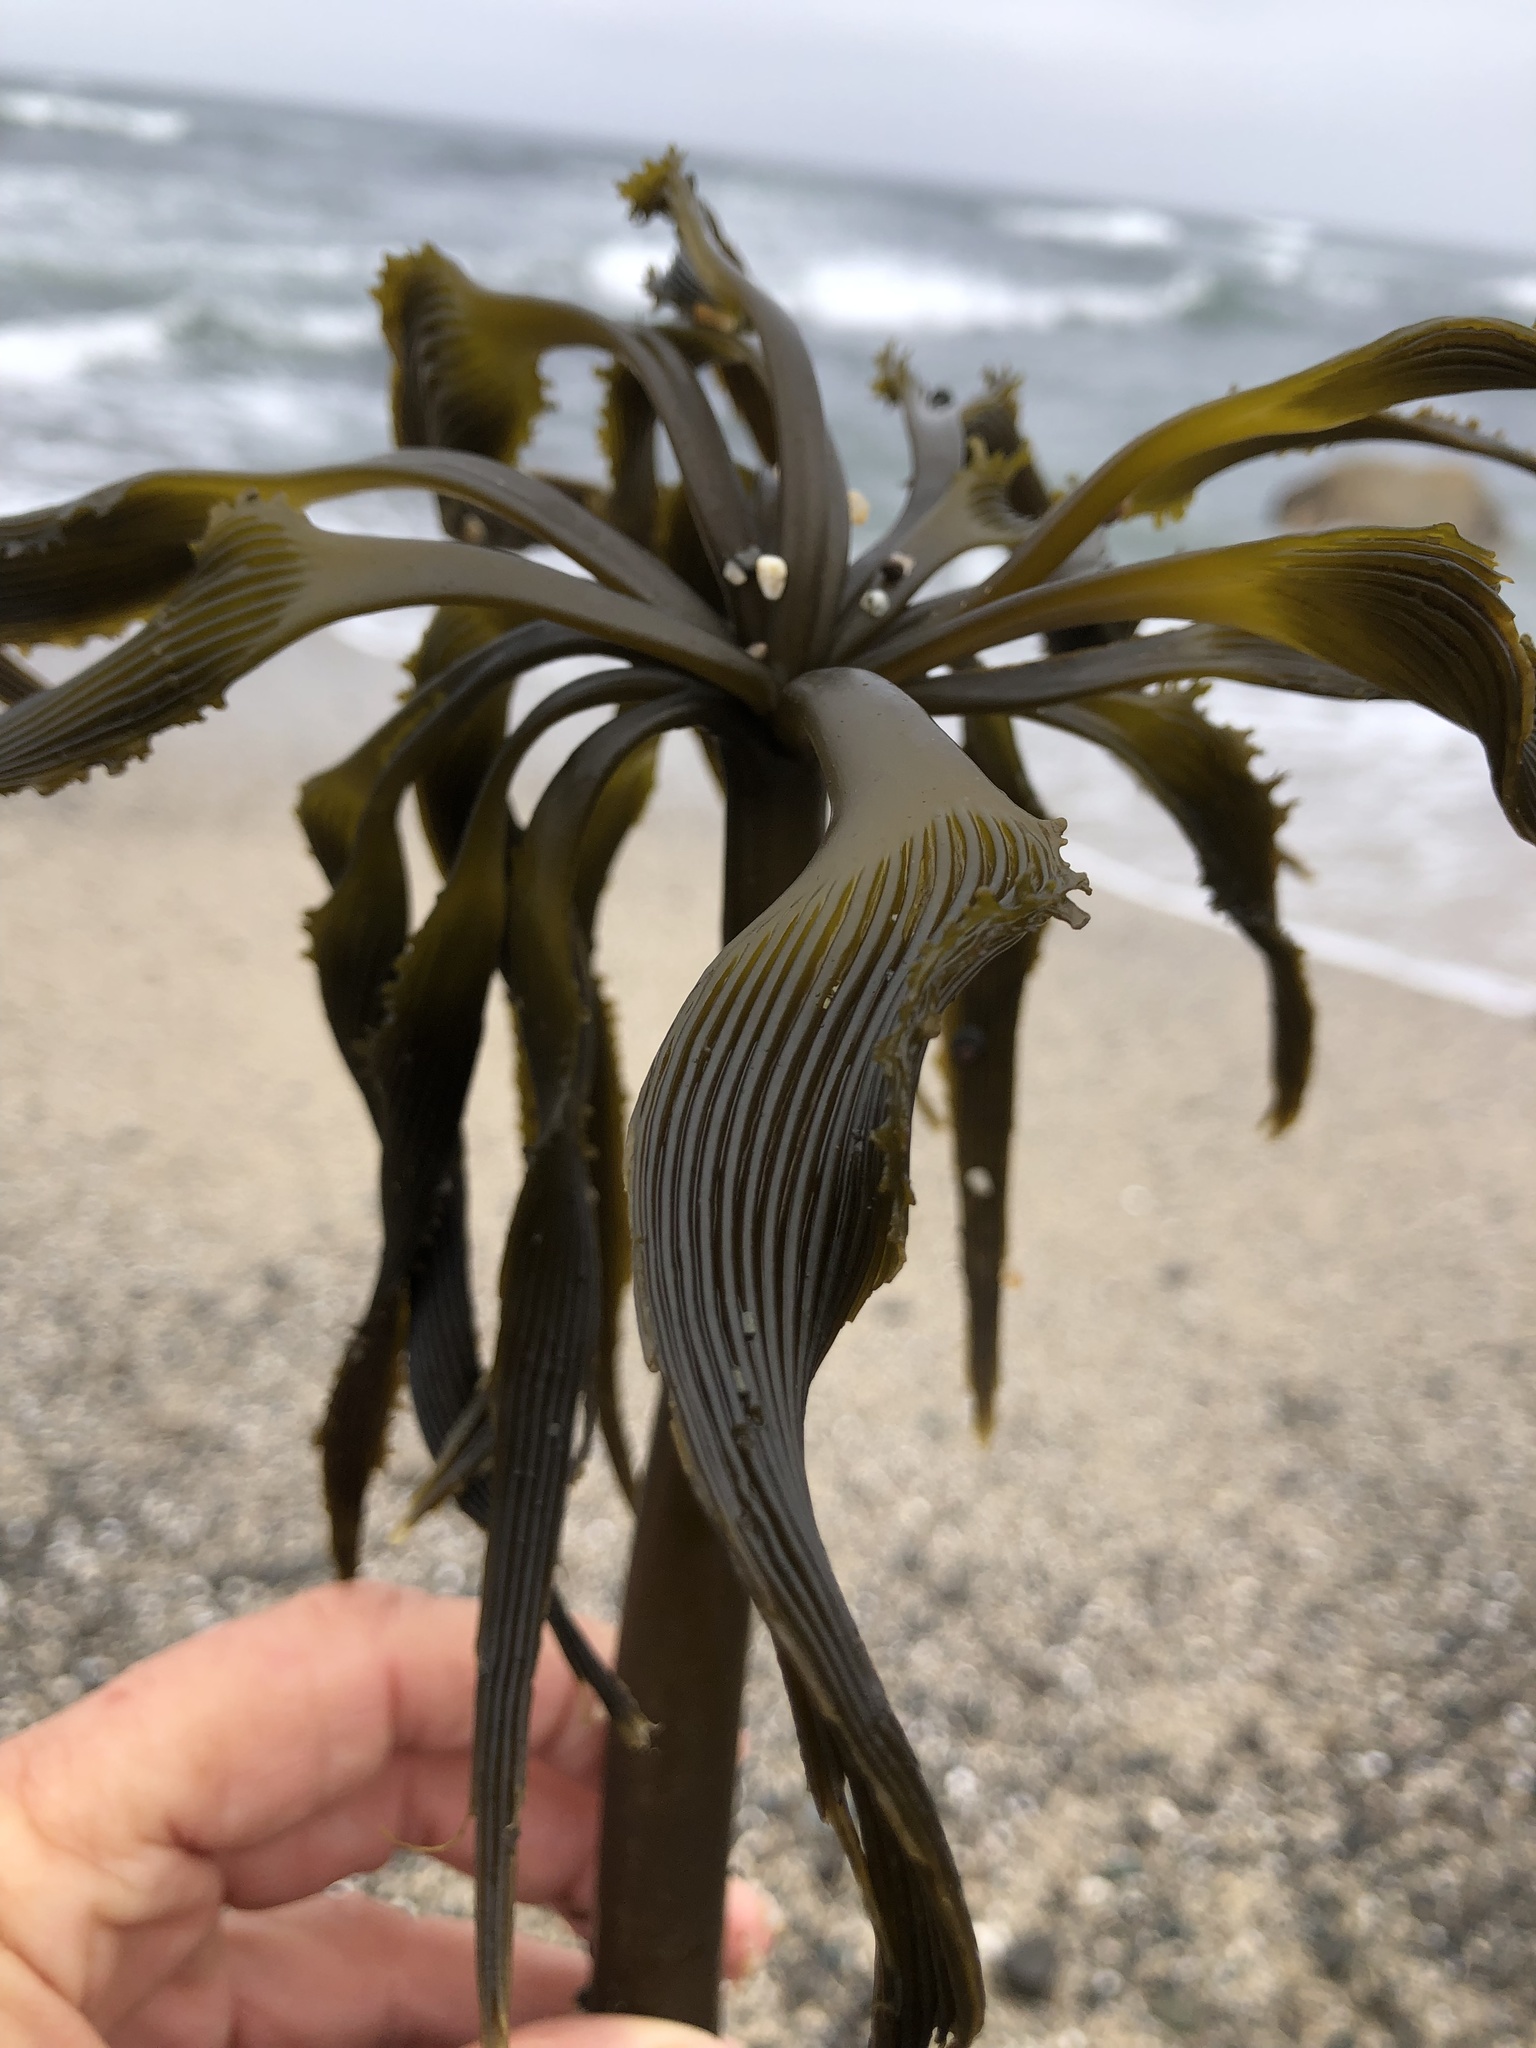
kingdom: Chromista
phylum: Ochrophyta
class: Phaeophyceae
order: Laminariales
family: Laminariaceae
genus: Postelsia
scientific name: Postelsia palmiformis
